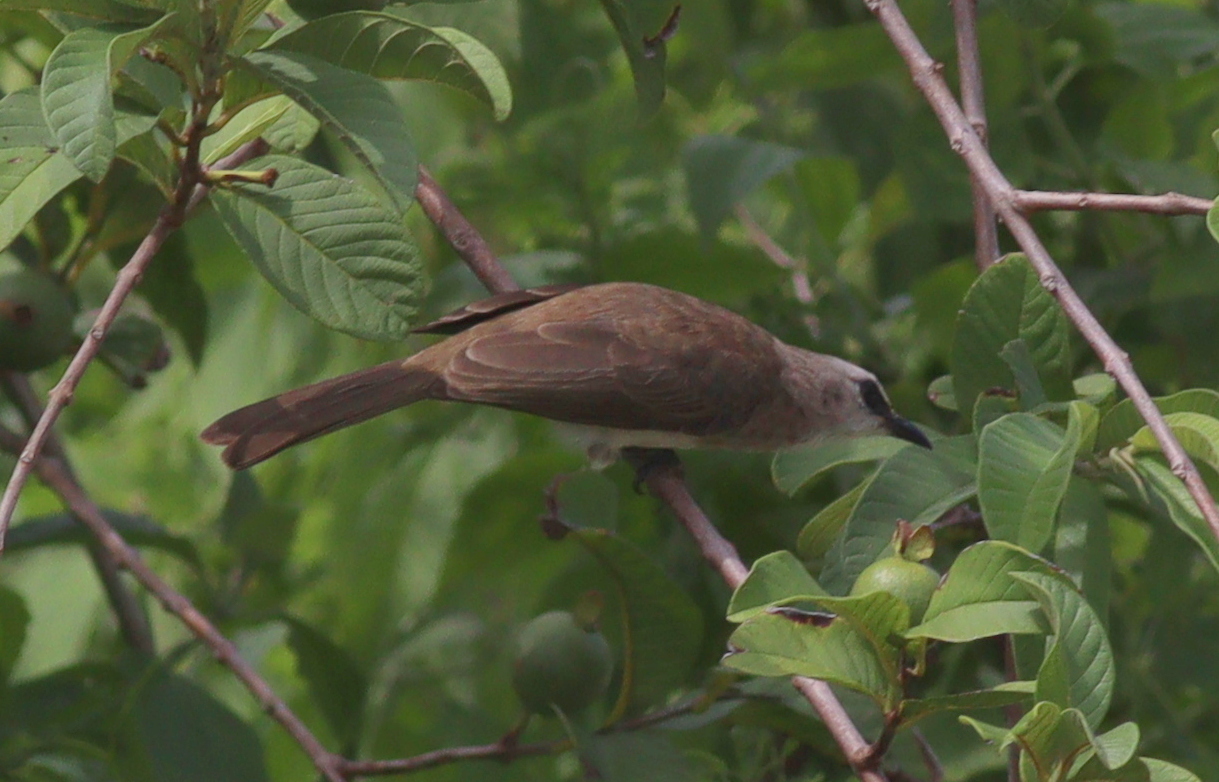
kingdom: Animalia
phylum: Chordata
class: Aves
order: Passeriformes
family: Pycnonotidae
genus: Pycnonotus
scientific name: Pycnonotus goiavier
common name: Yellow-vented bulbul
